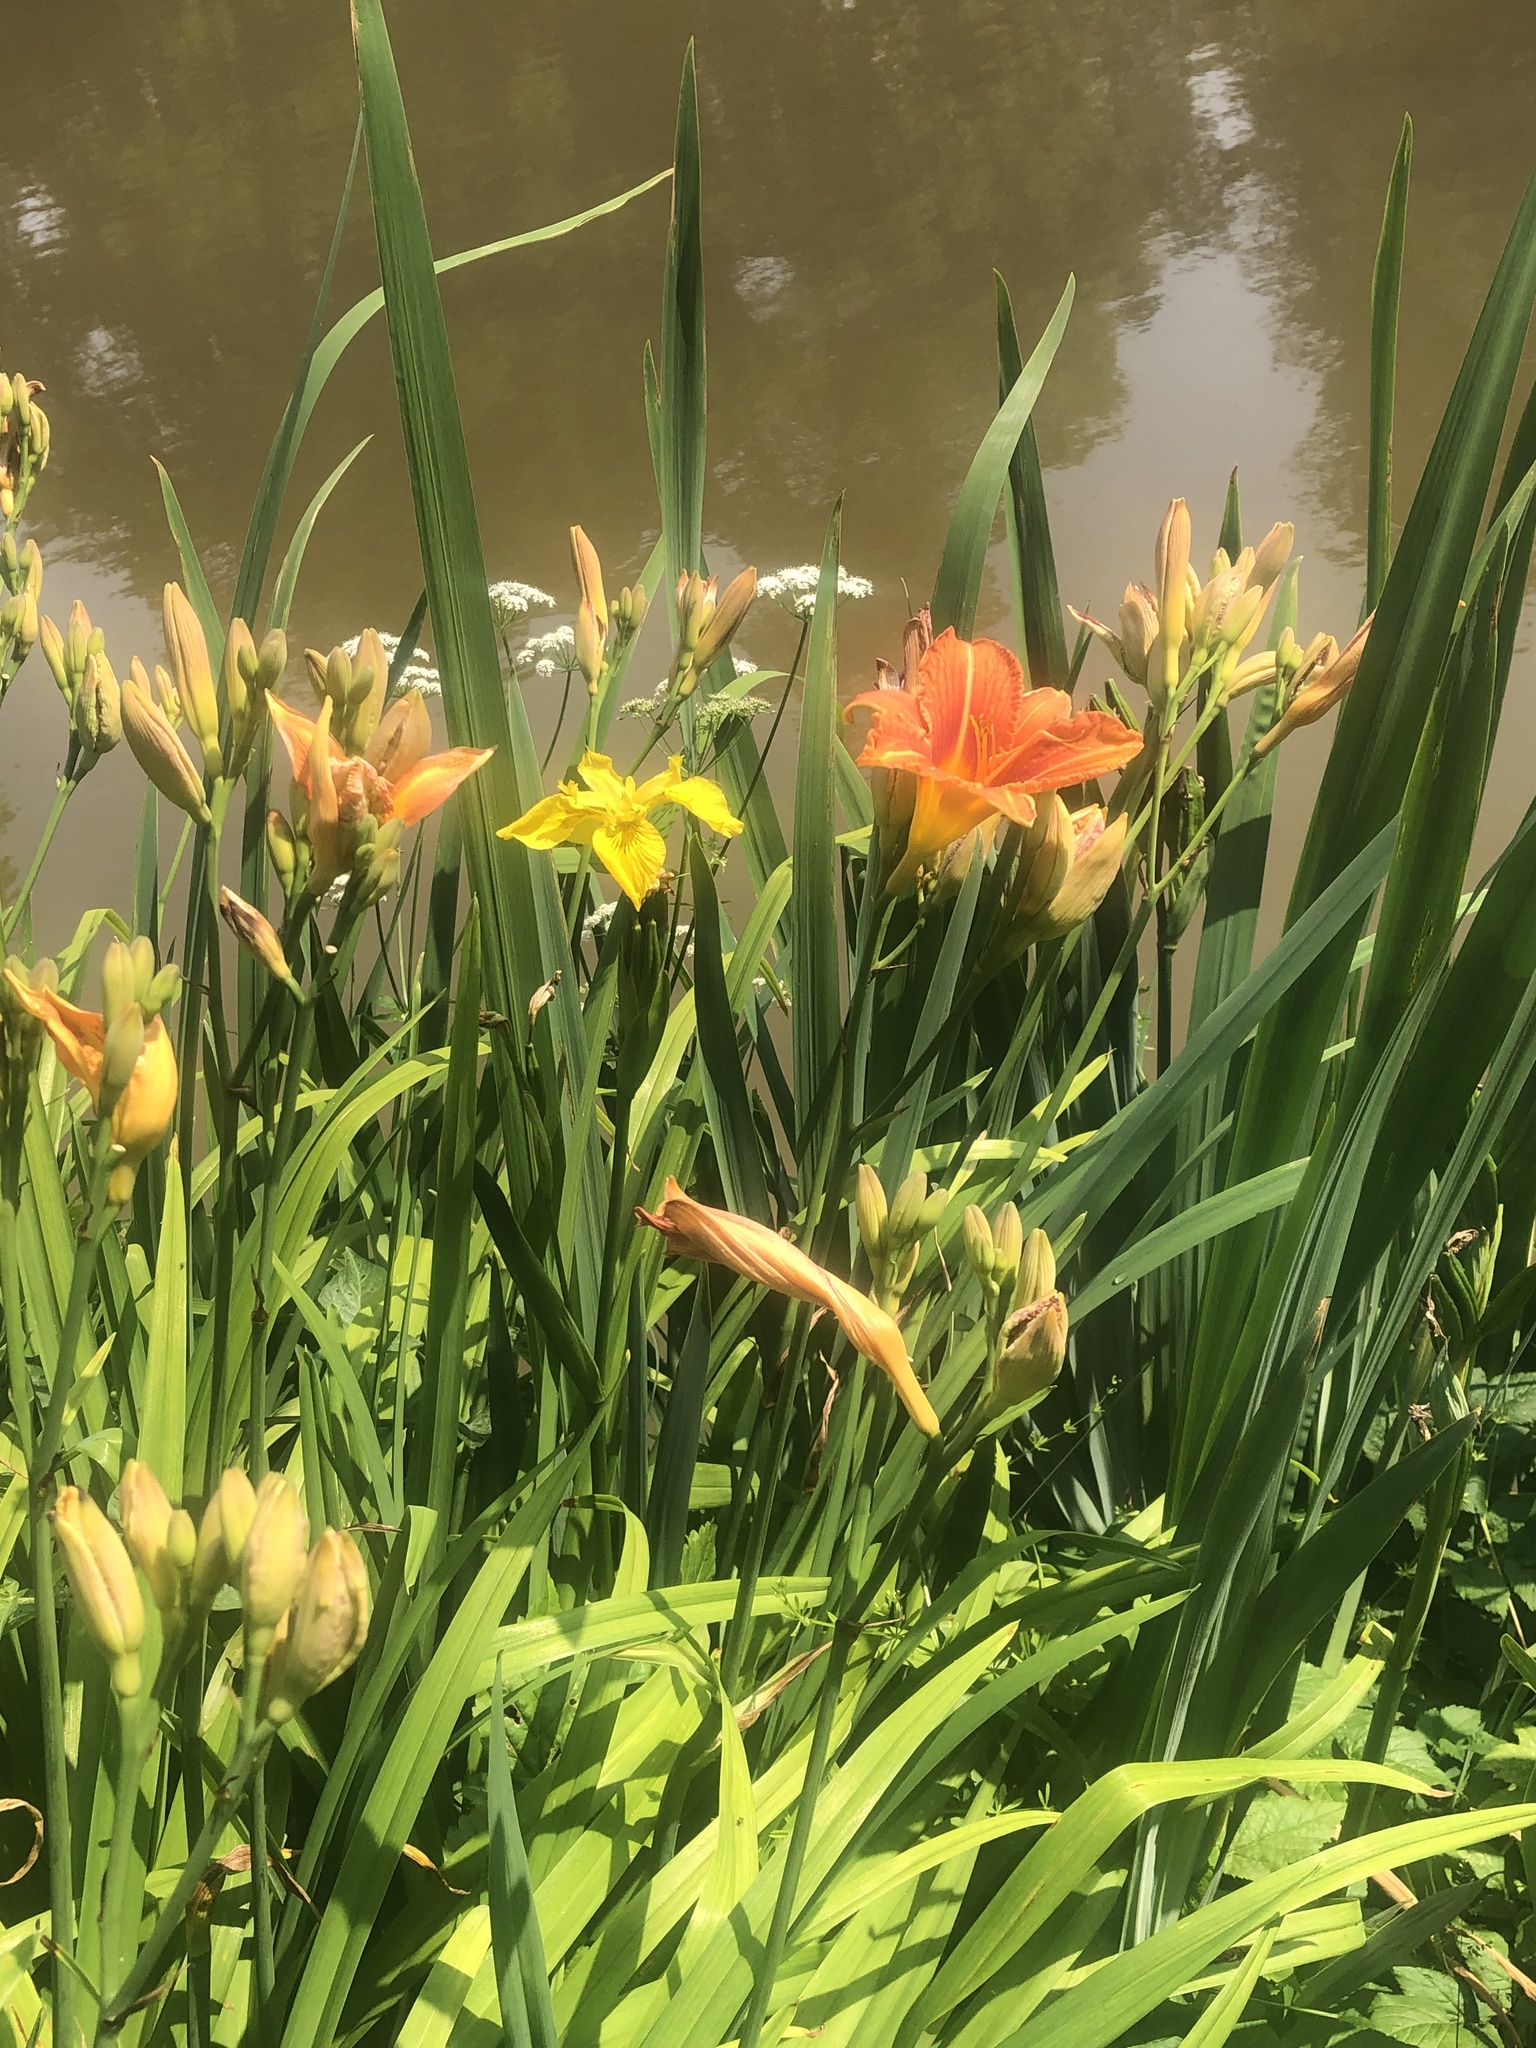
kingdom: Plantae
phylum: Tracheophyta
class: Liliopsida
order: Asparagales
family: Asphodelaceae
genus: Hemerocallis
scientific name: Hemerocallis fulva
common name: Orange day-lily
